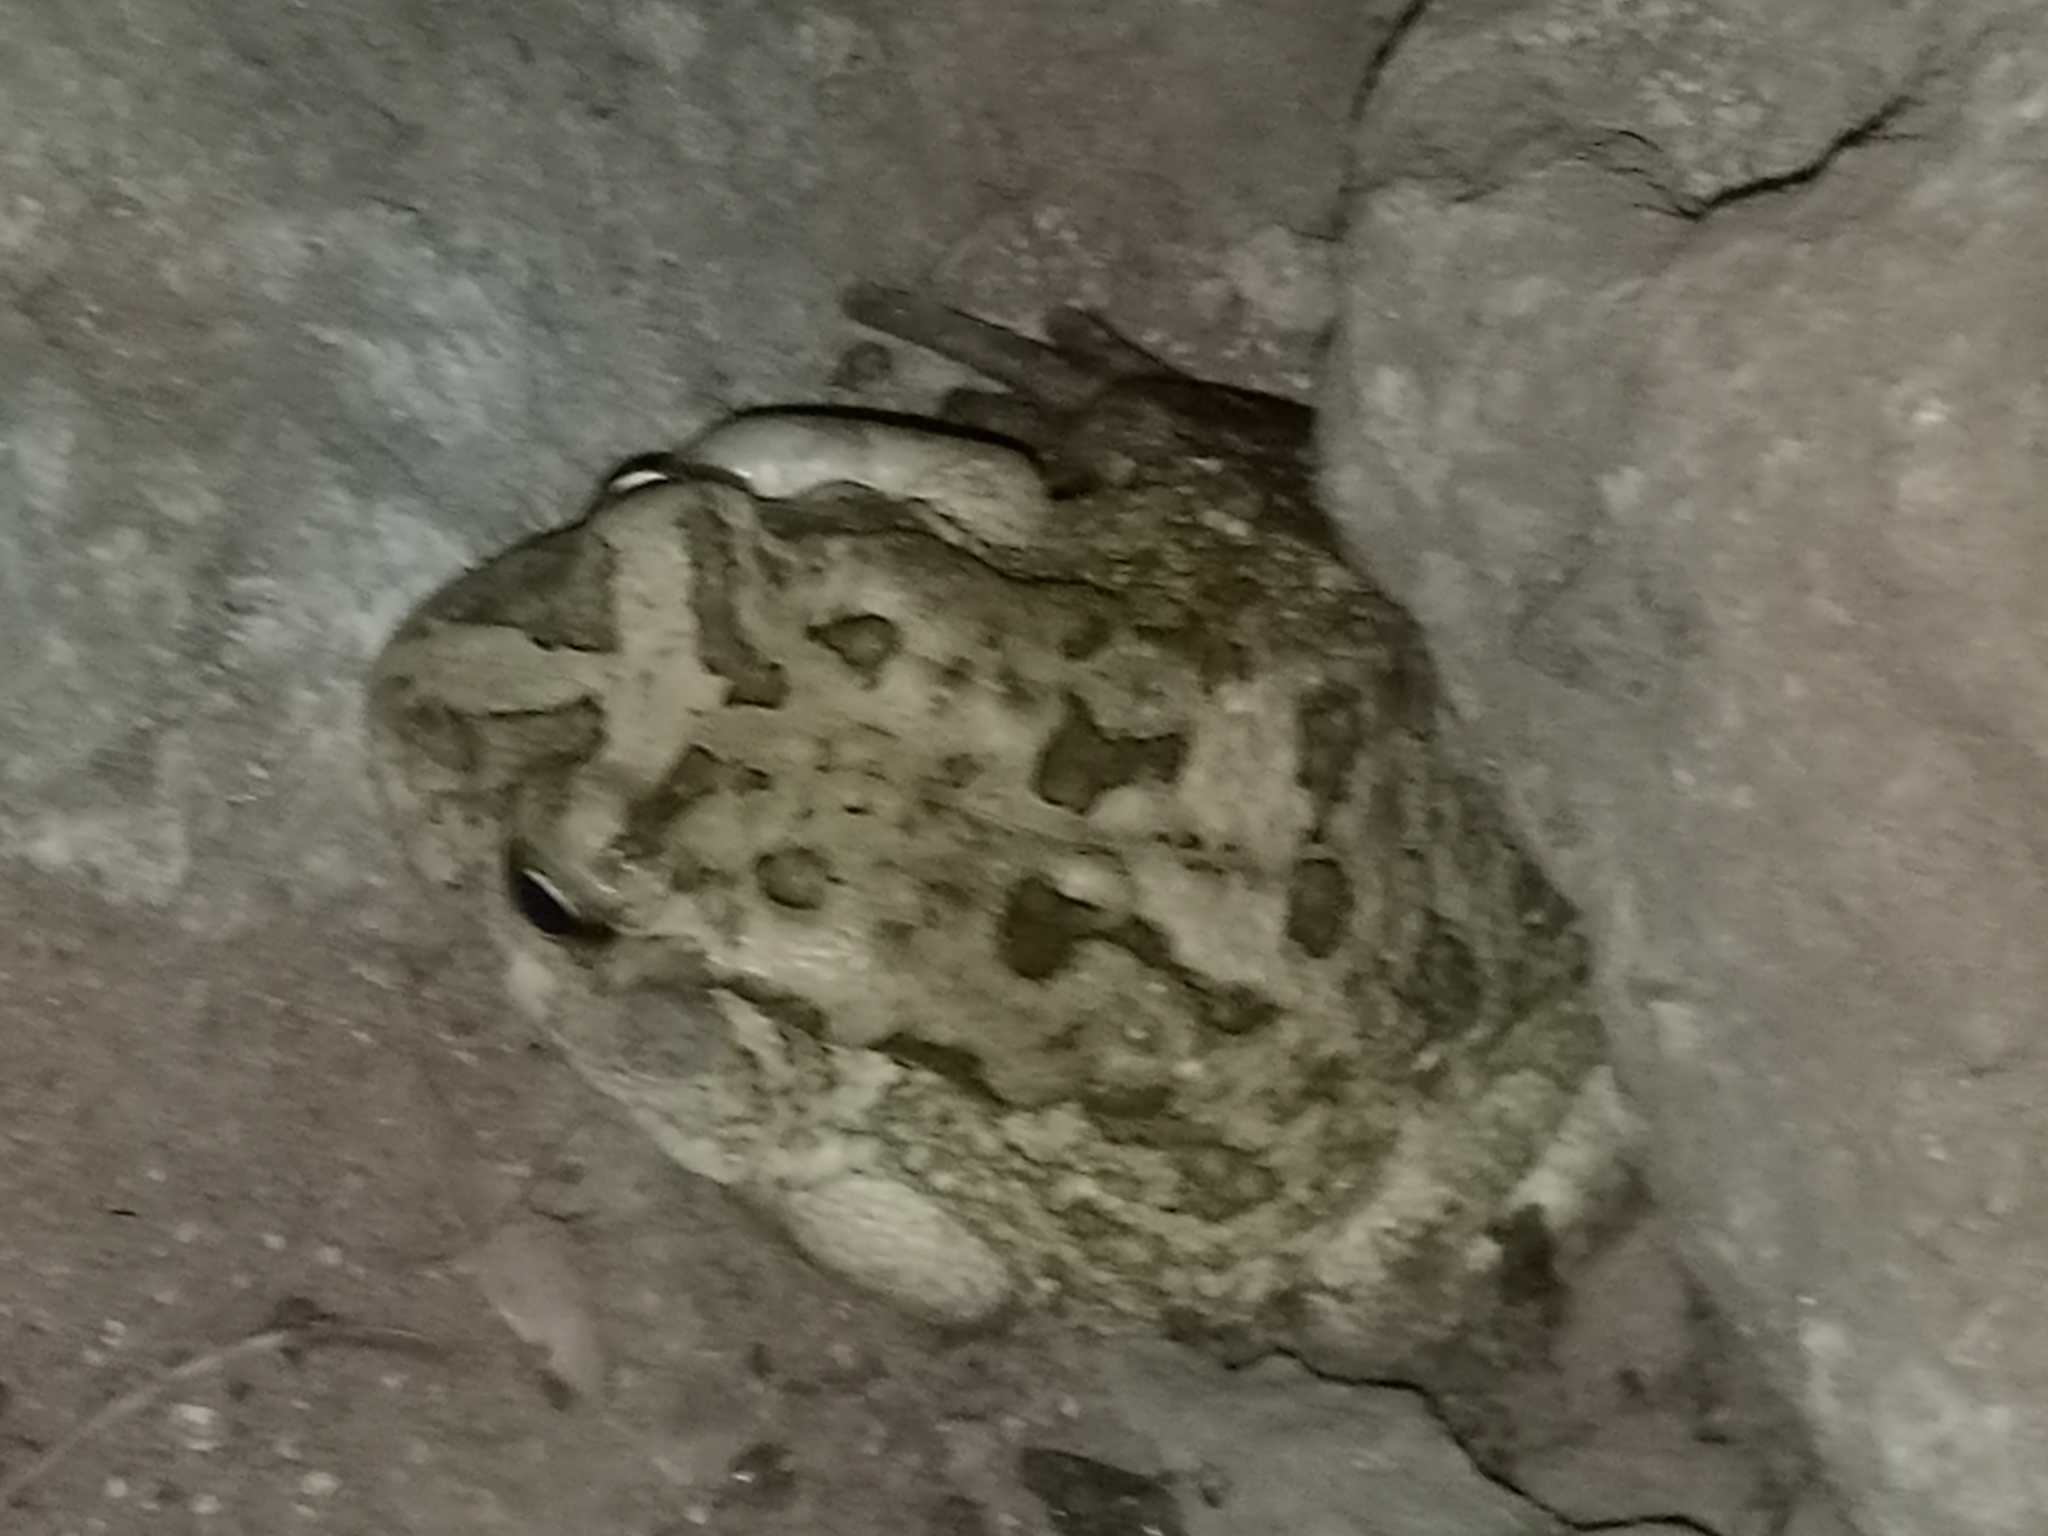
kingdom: Animalia
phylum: Chordata
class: Amphibia
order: Anura
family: Bufonidae
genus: Sclerophrys
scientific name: Sclerophrys regularis
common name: African common toad
